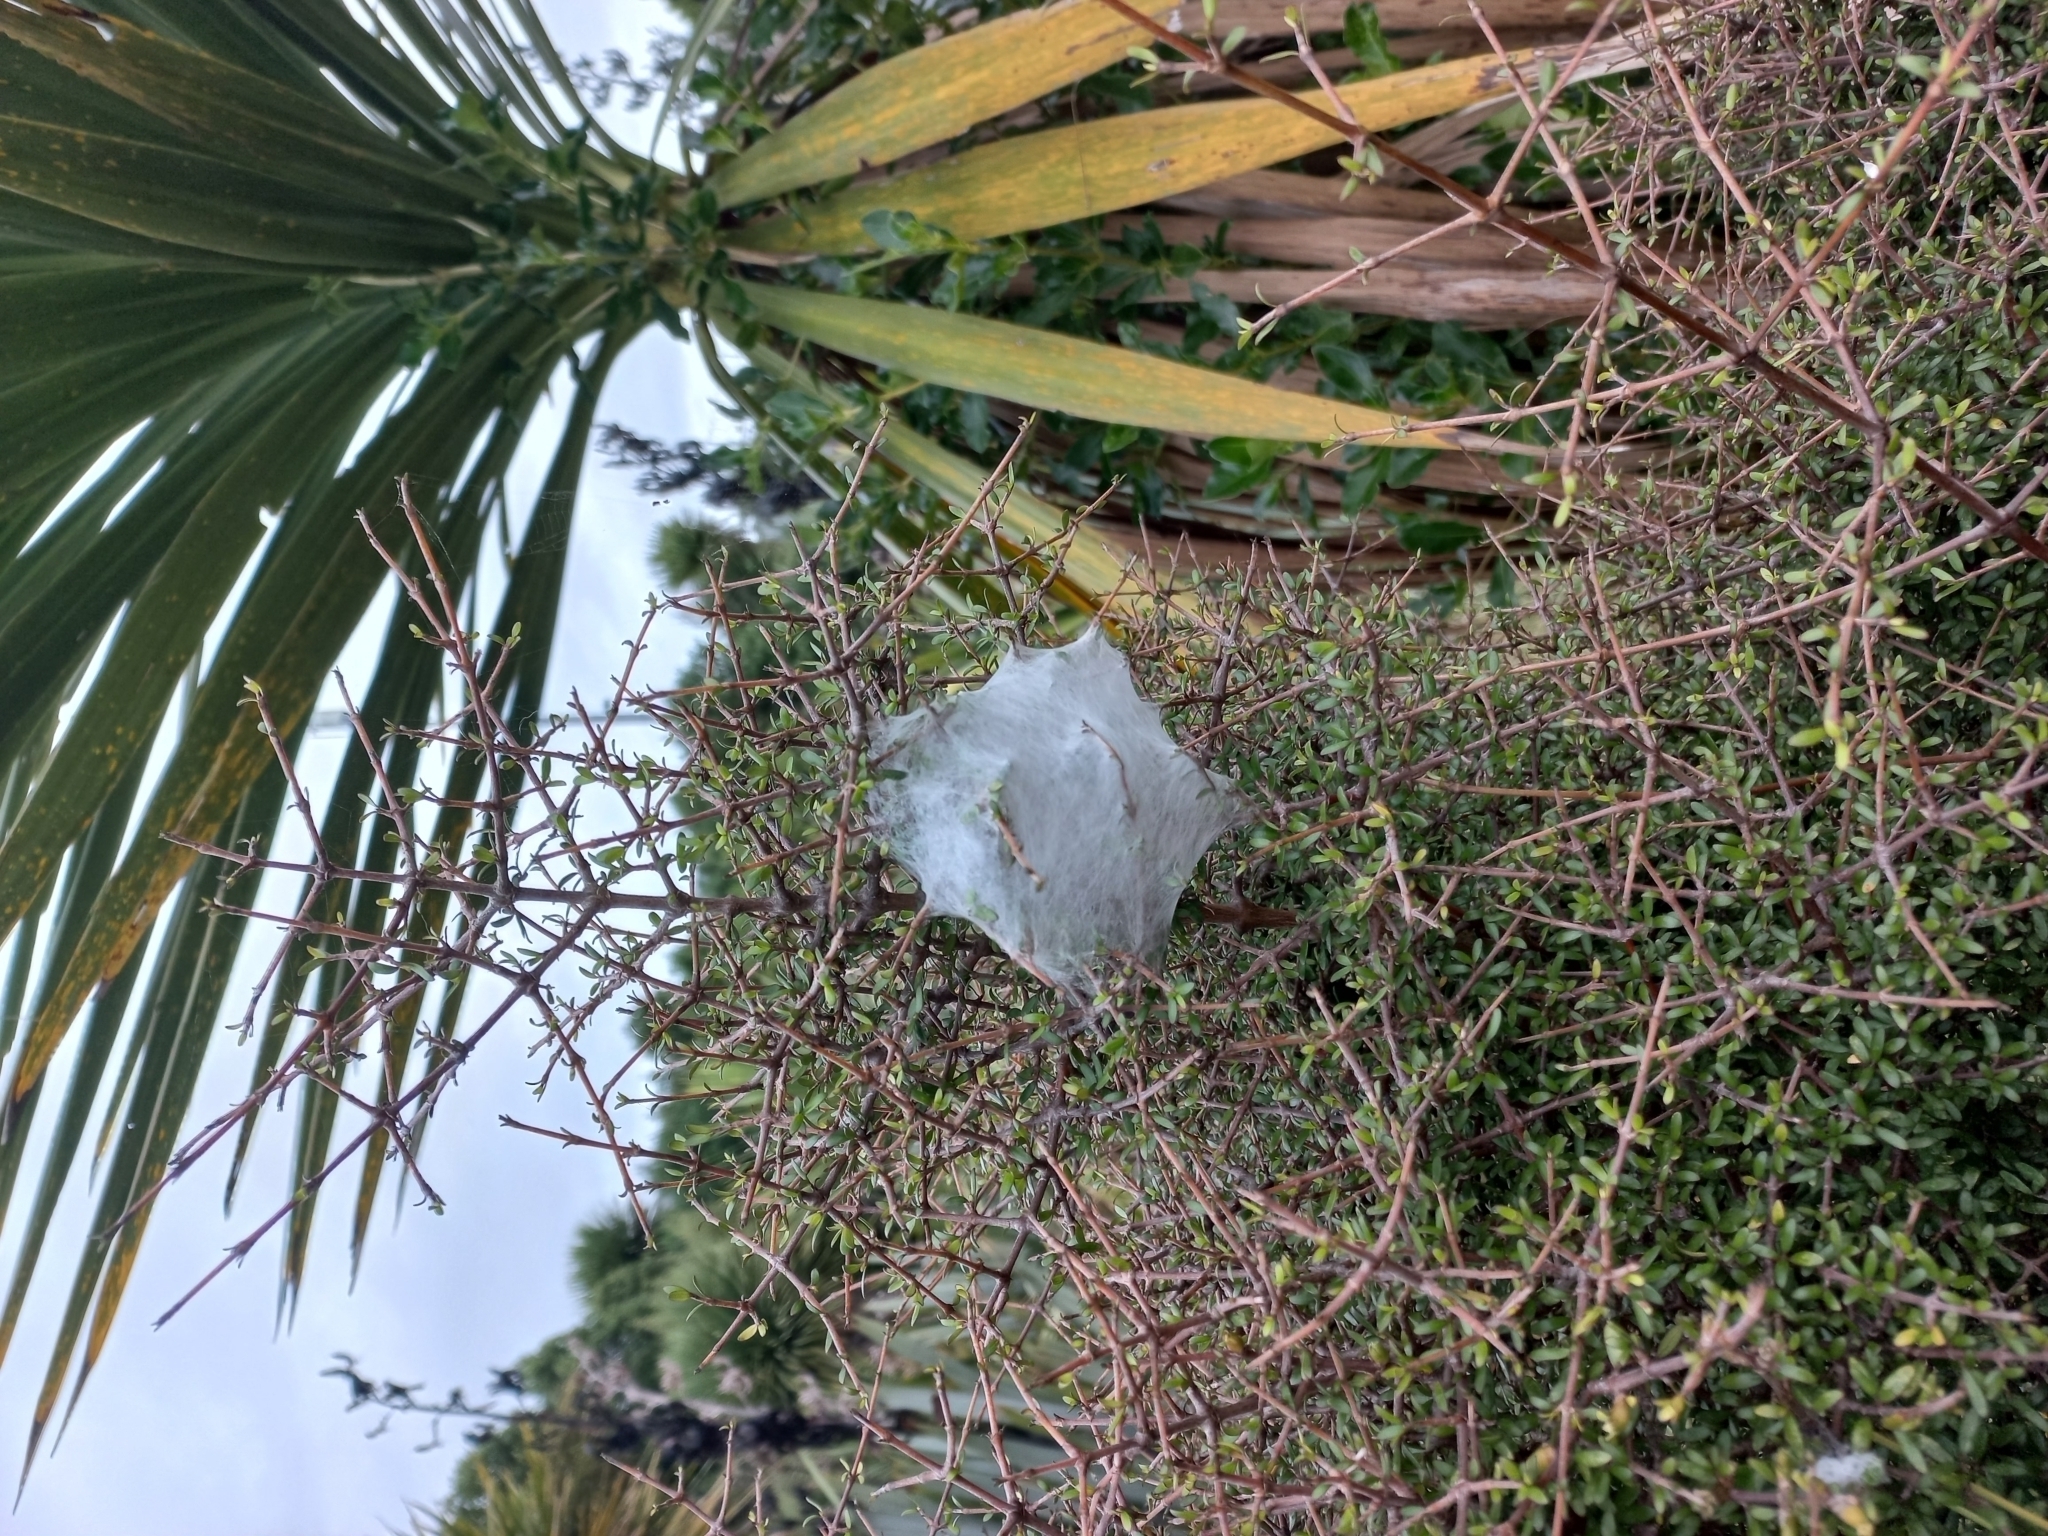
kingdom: Animalia
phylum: Arthropoda
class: Arachnida
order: Araneae
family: Pisauridae
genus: Dolomedes
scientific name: Dolomedes minor
